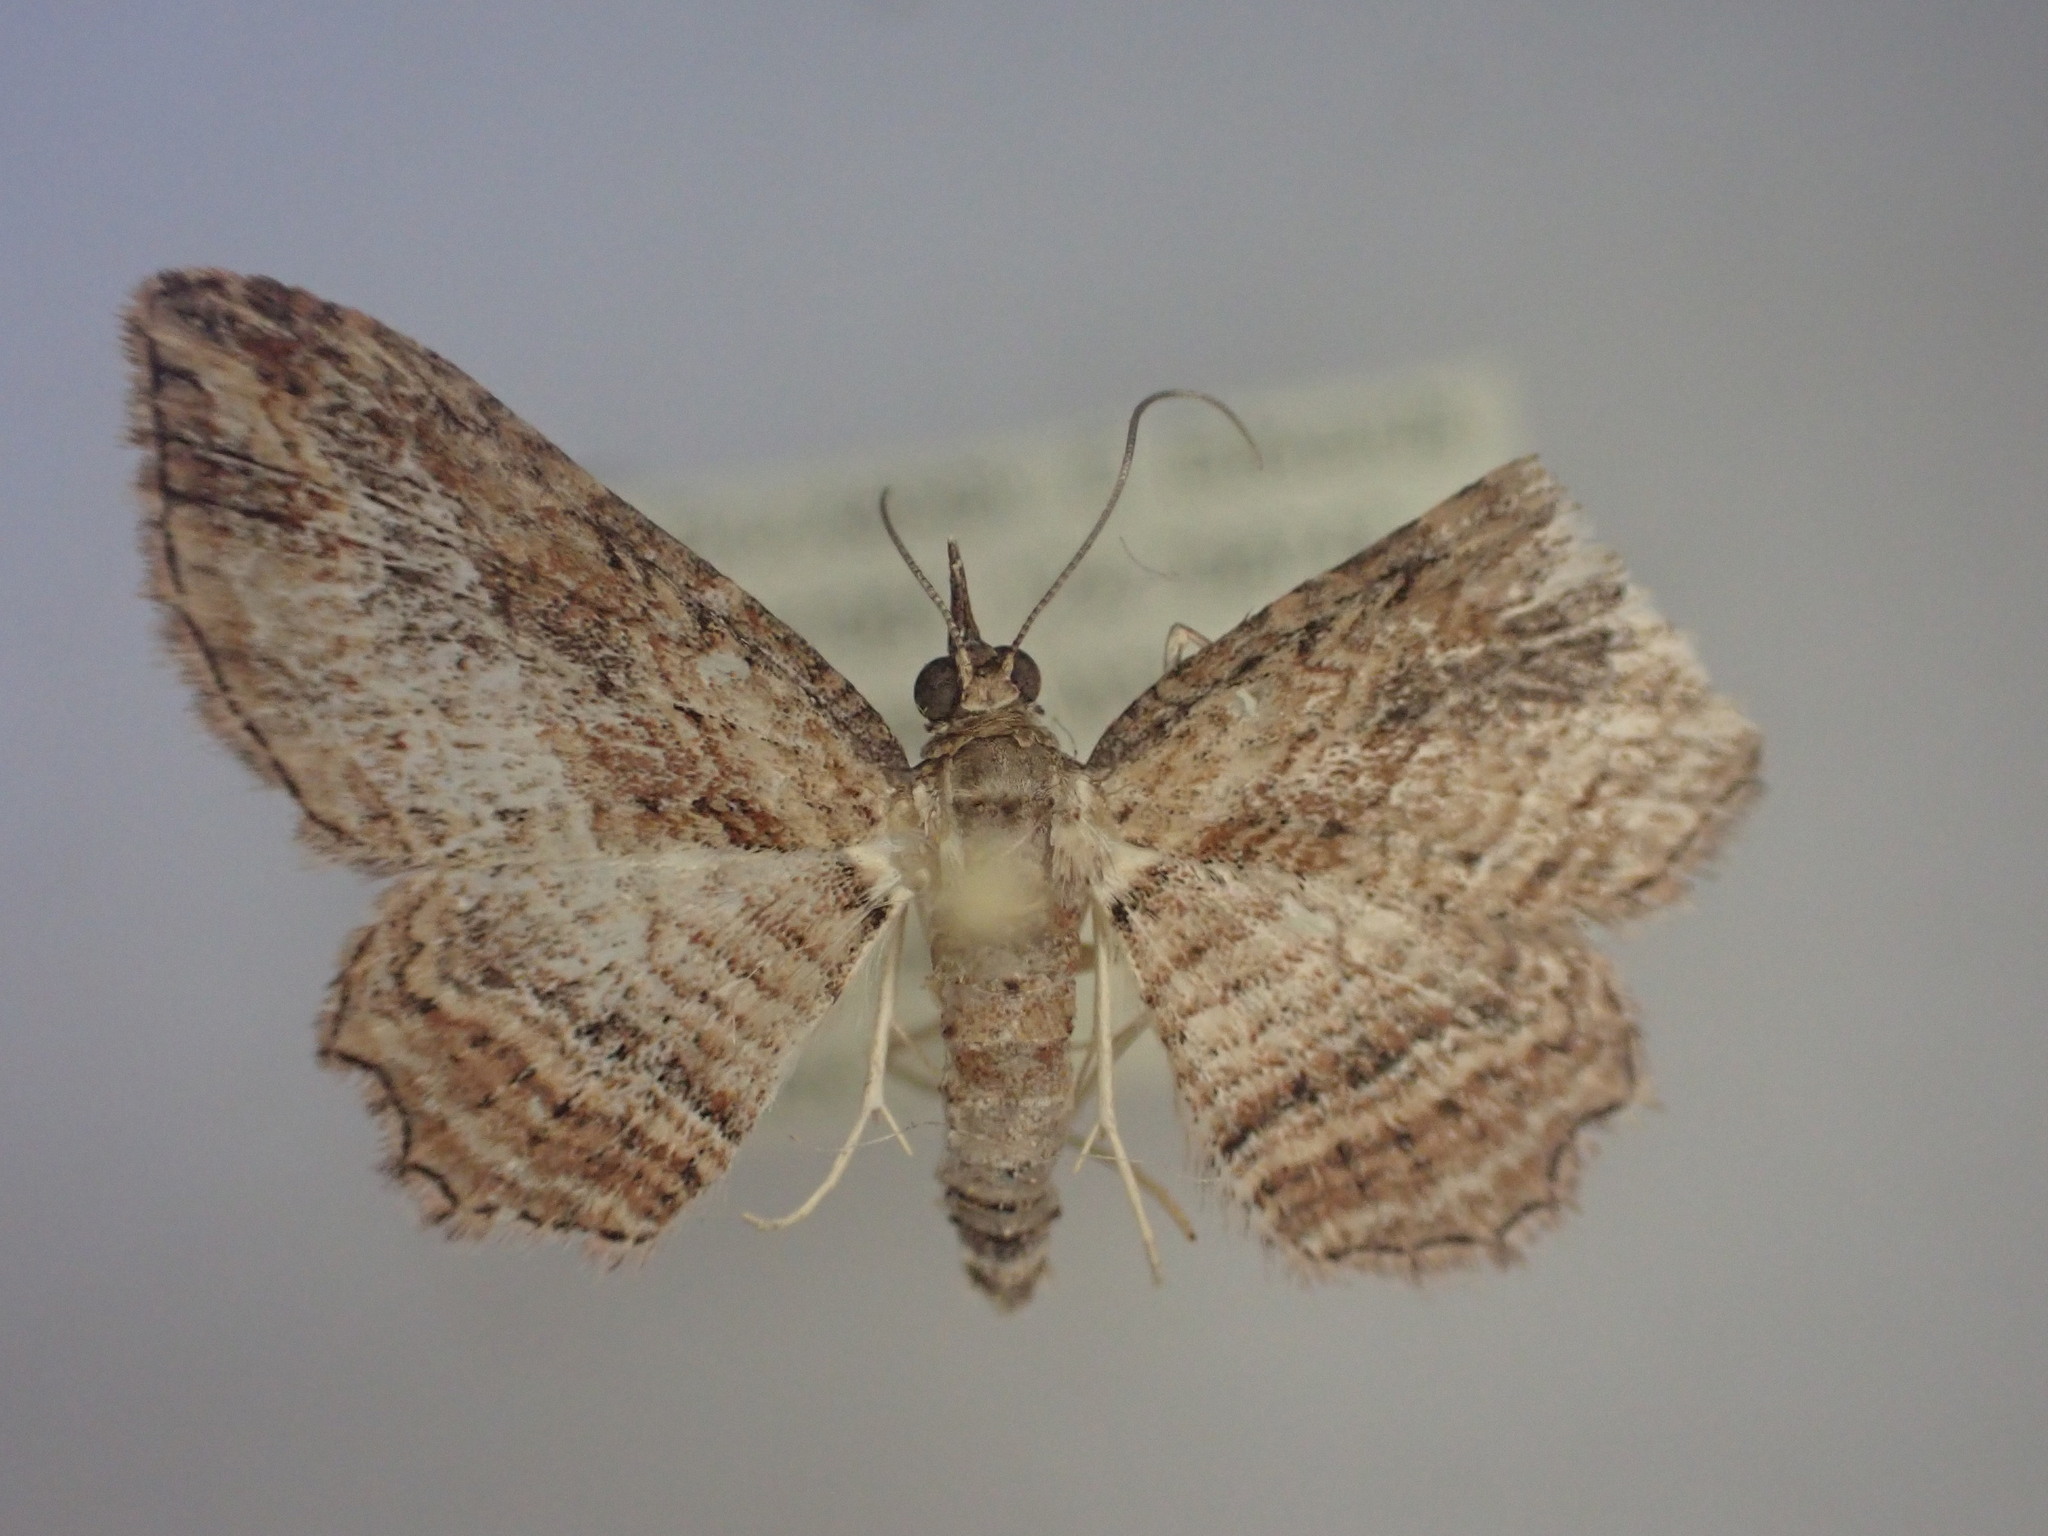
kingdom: Animalia
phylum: Arthropoda
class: Insecta
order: Lepidoptera
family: Geometridae
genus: Chloroclystis
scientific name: Chloroclystis filata
